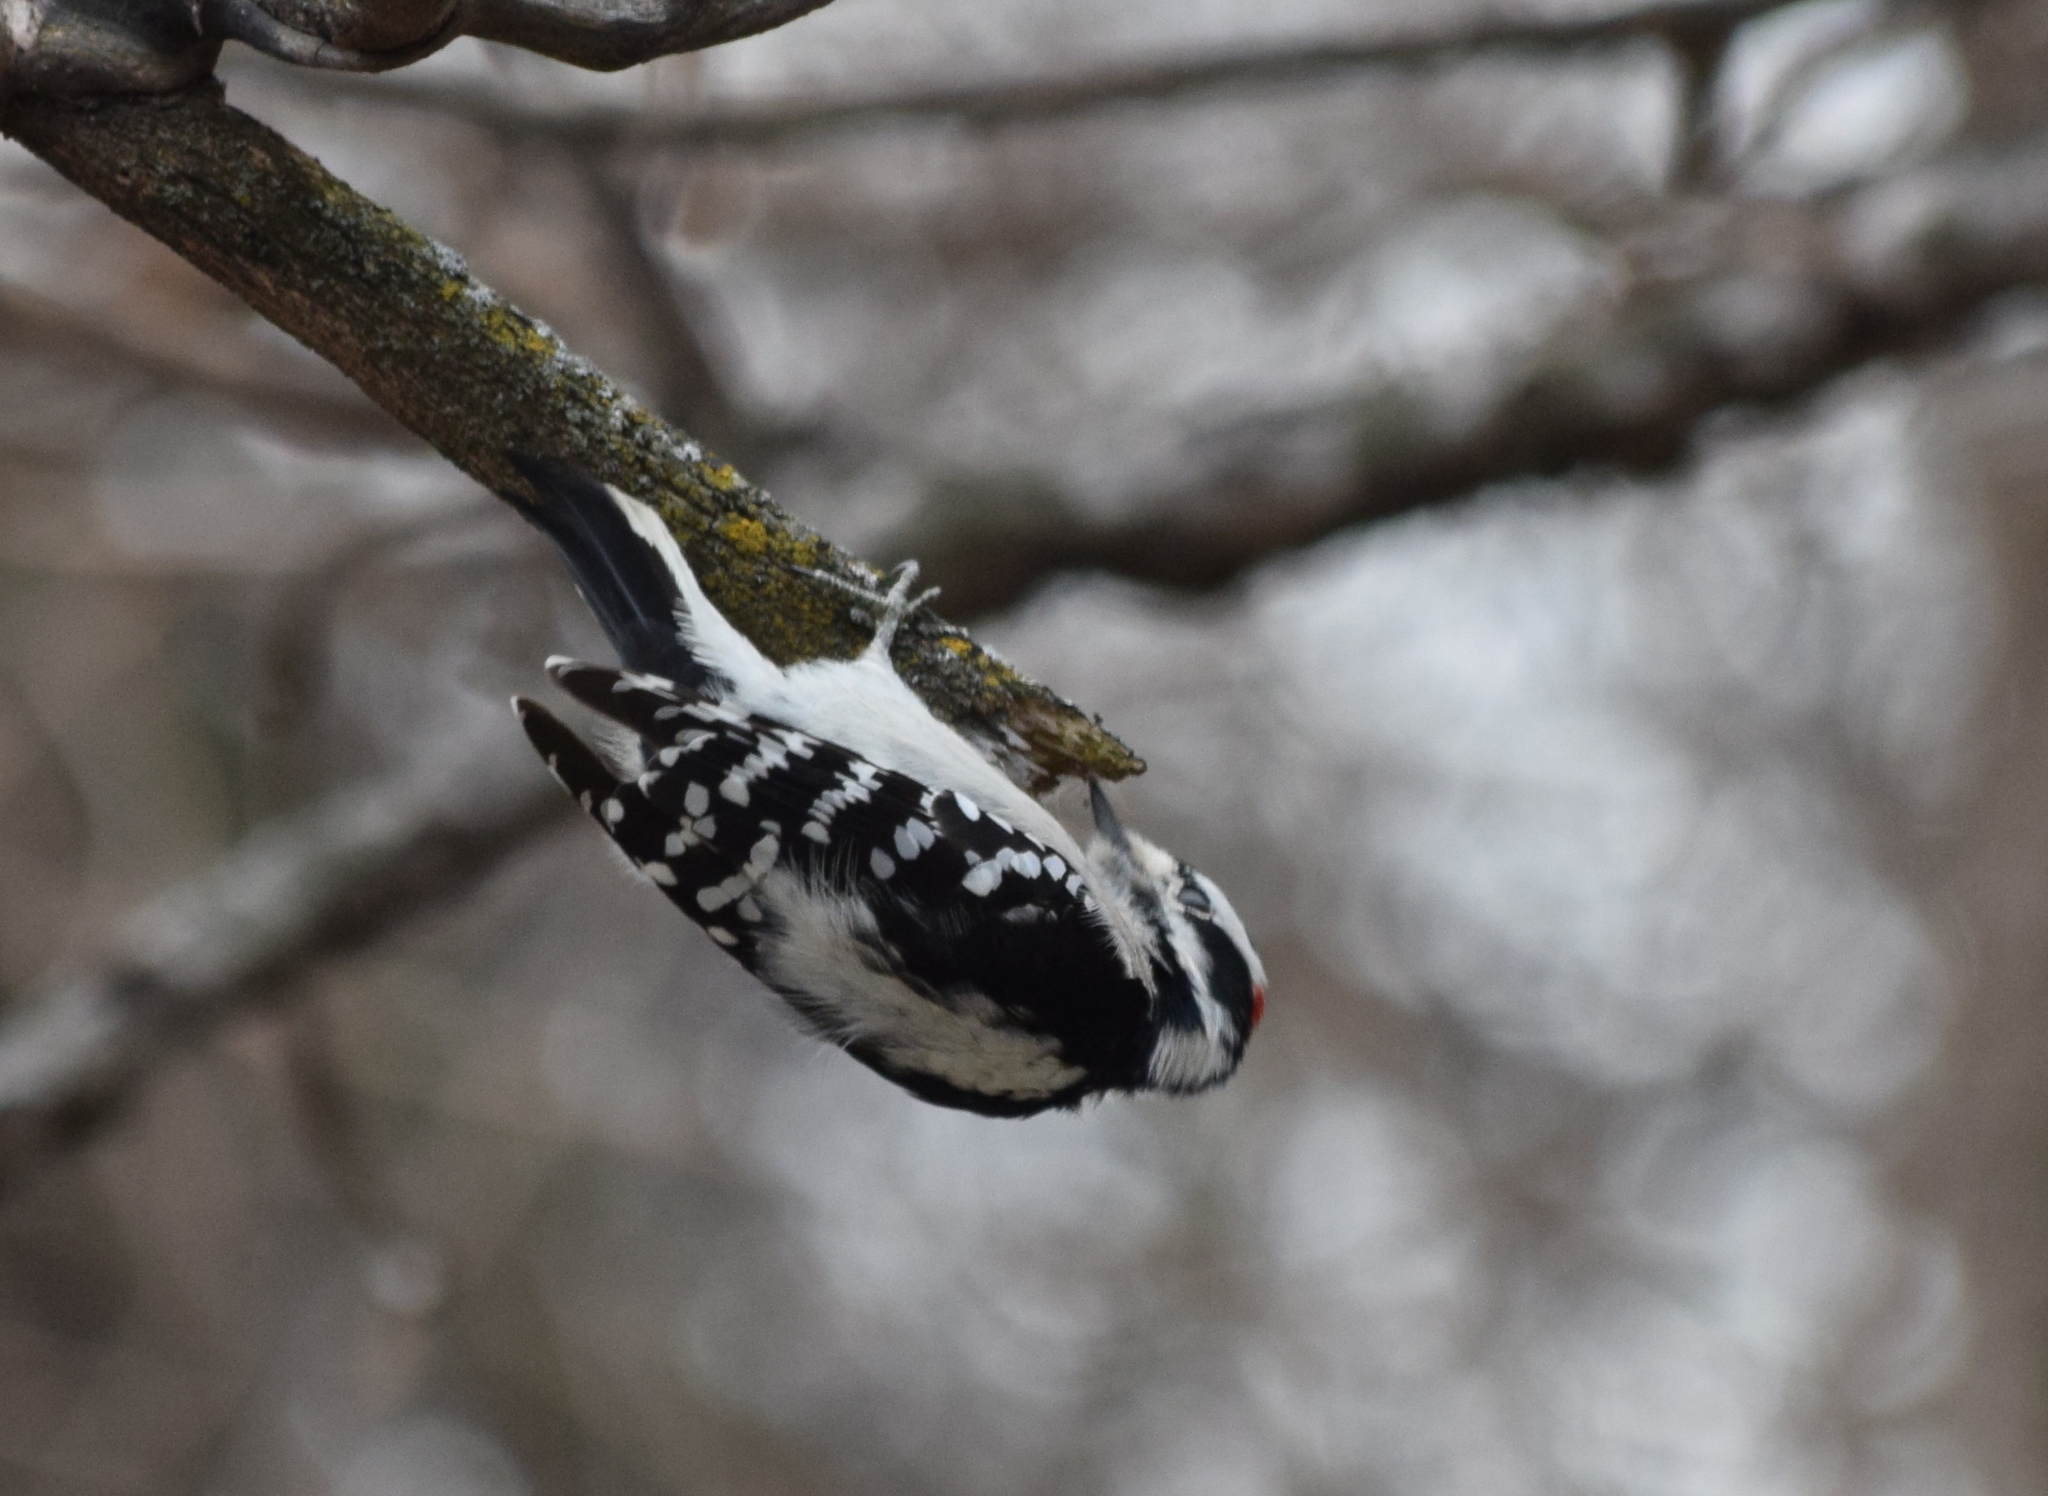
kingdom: Animalia
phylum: Chordata
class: Aves
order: Piciformes
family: Picidae
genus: Dryobates
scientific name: Dryobates pubescens
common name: Downy woodpecker
